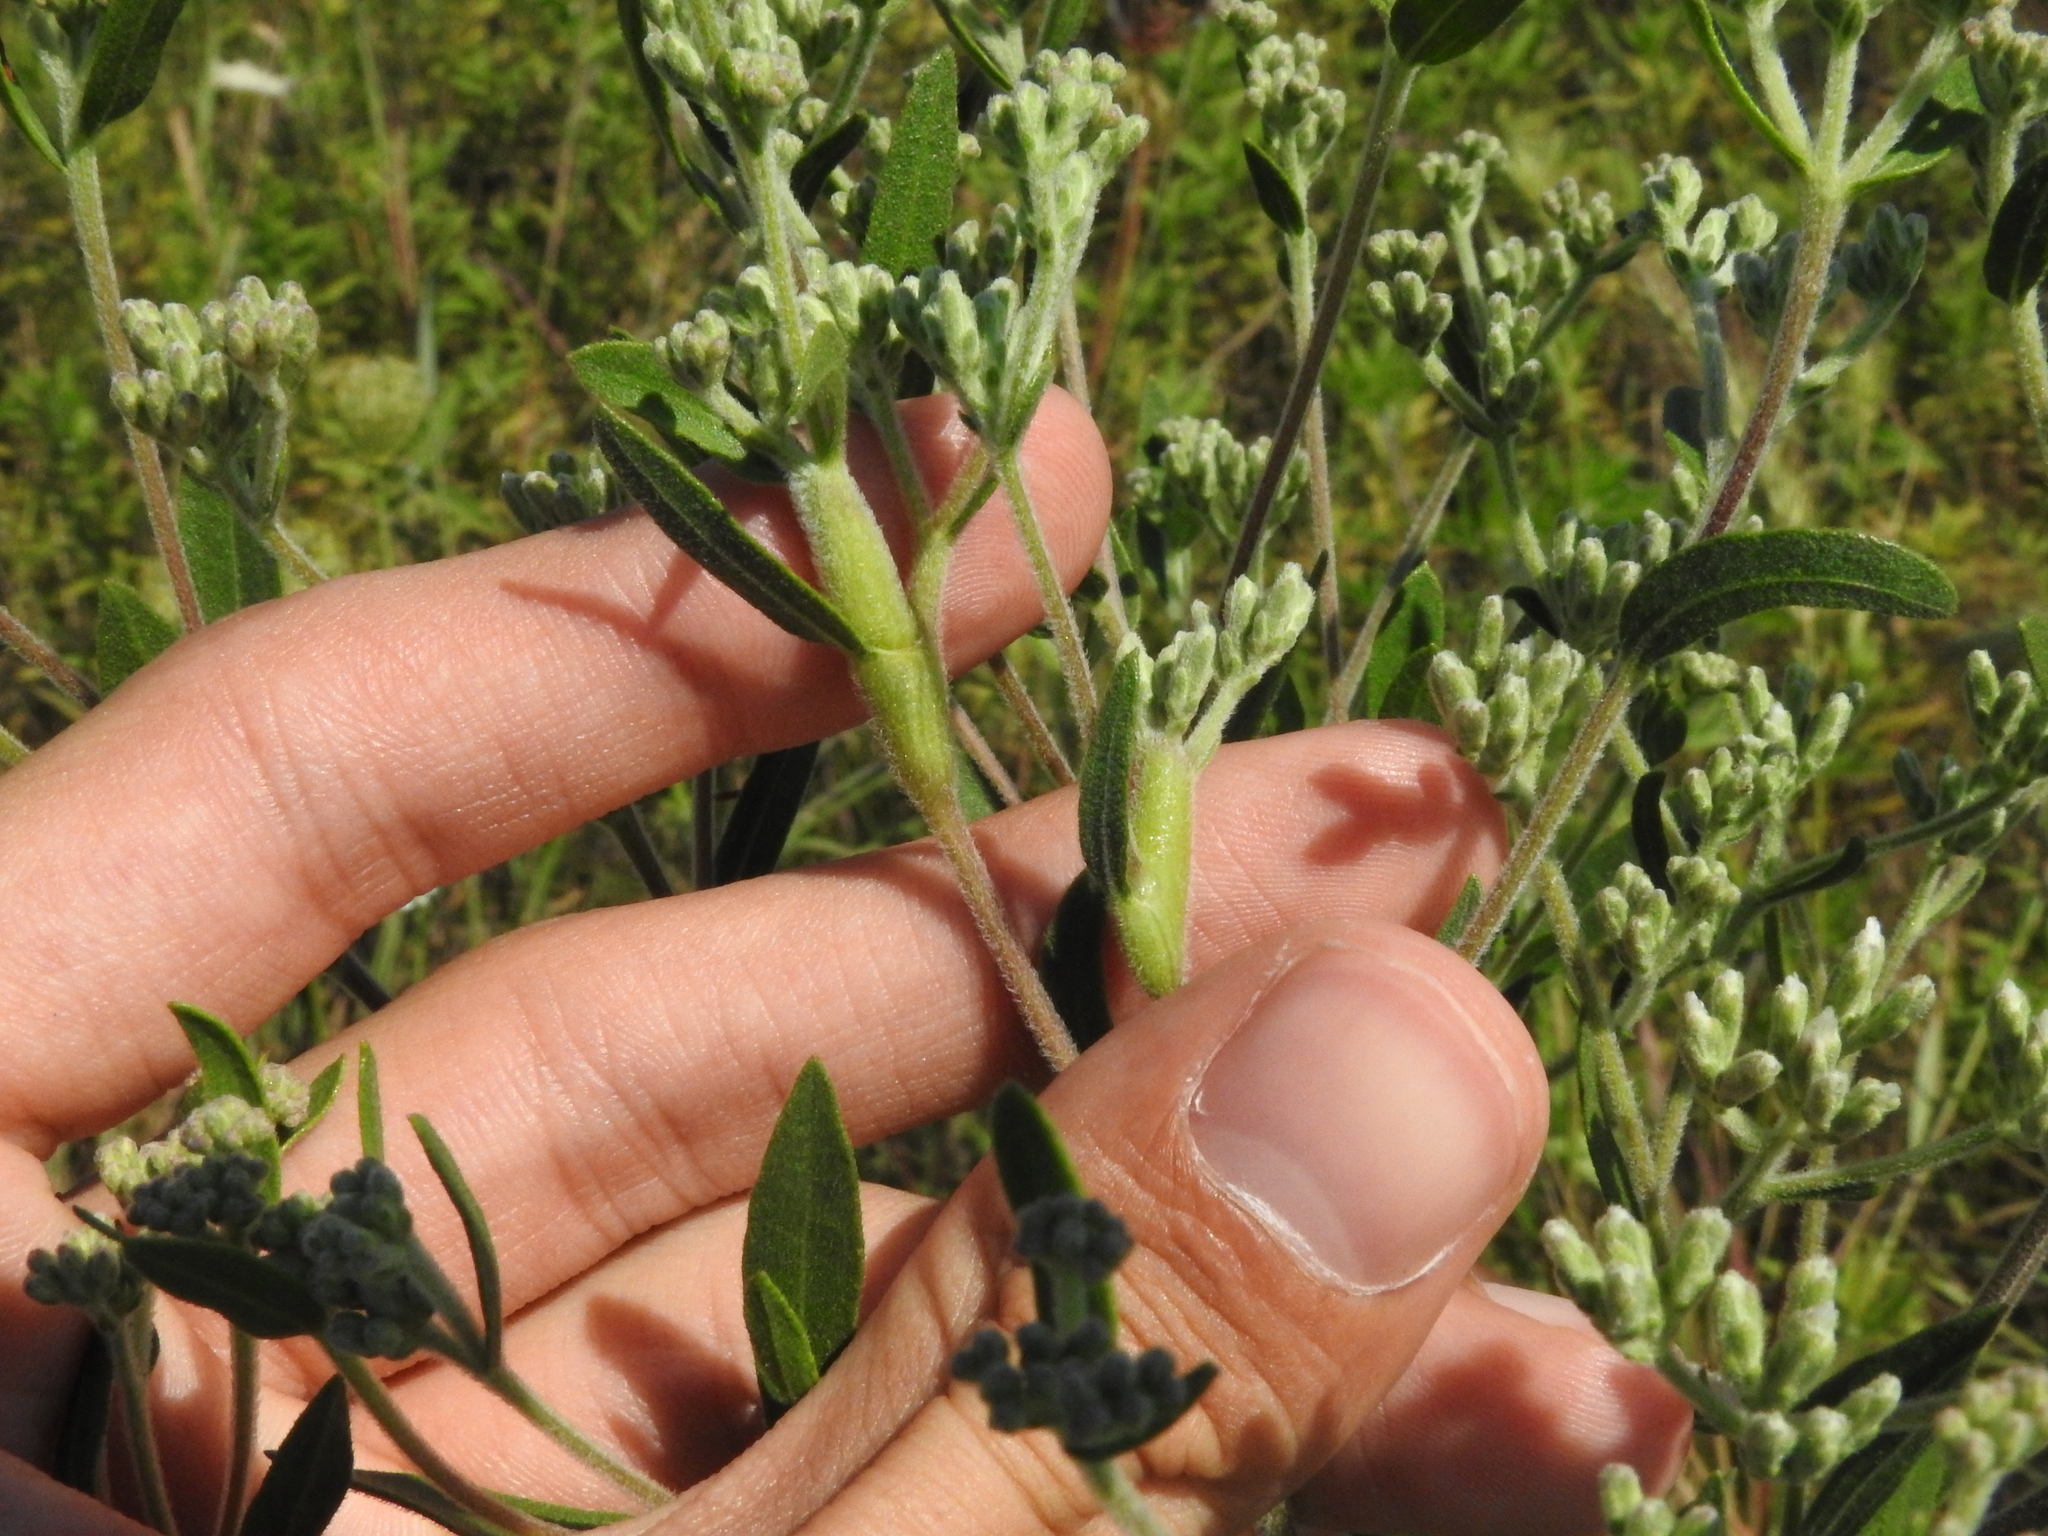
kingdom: Animalia
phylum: Arthropoda
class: Insecta
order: Diptera
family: Cecidomyiidae
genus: Neolasioptera
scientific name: Neolasioptera perfoliata
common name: Boneset stem midge
